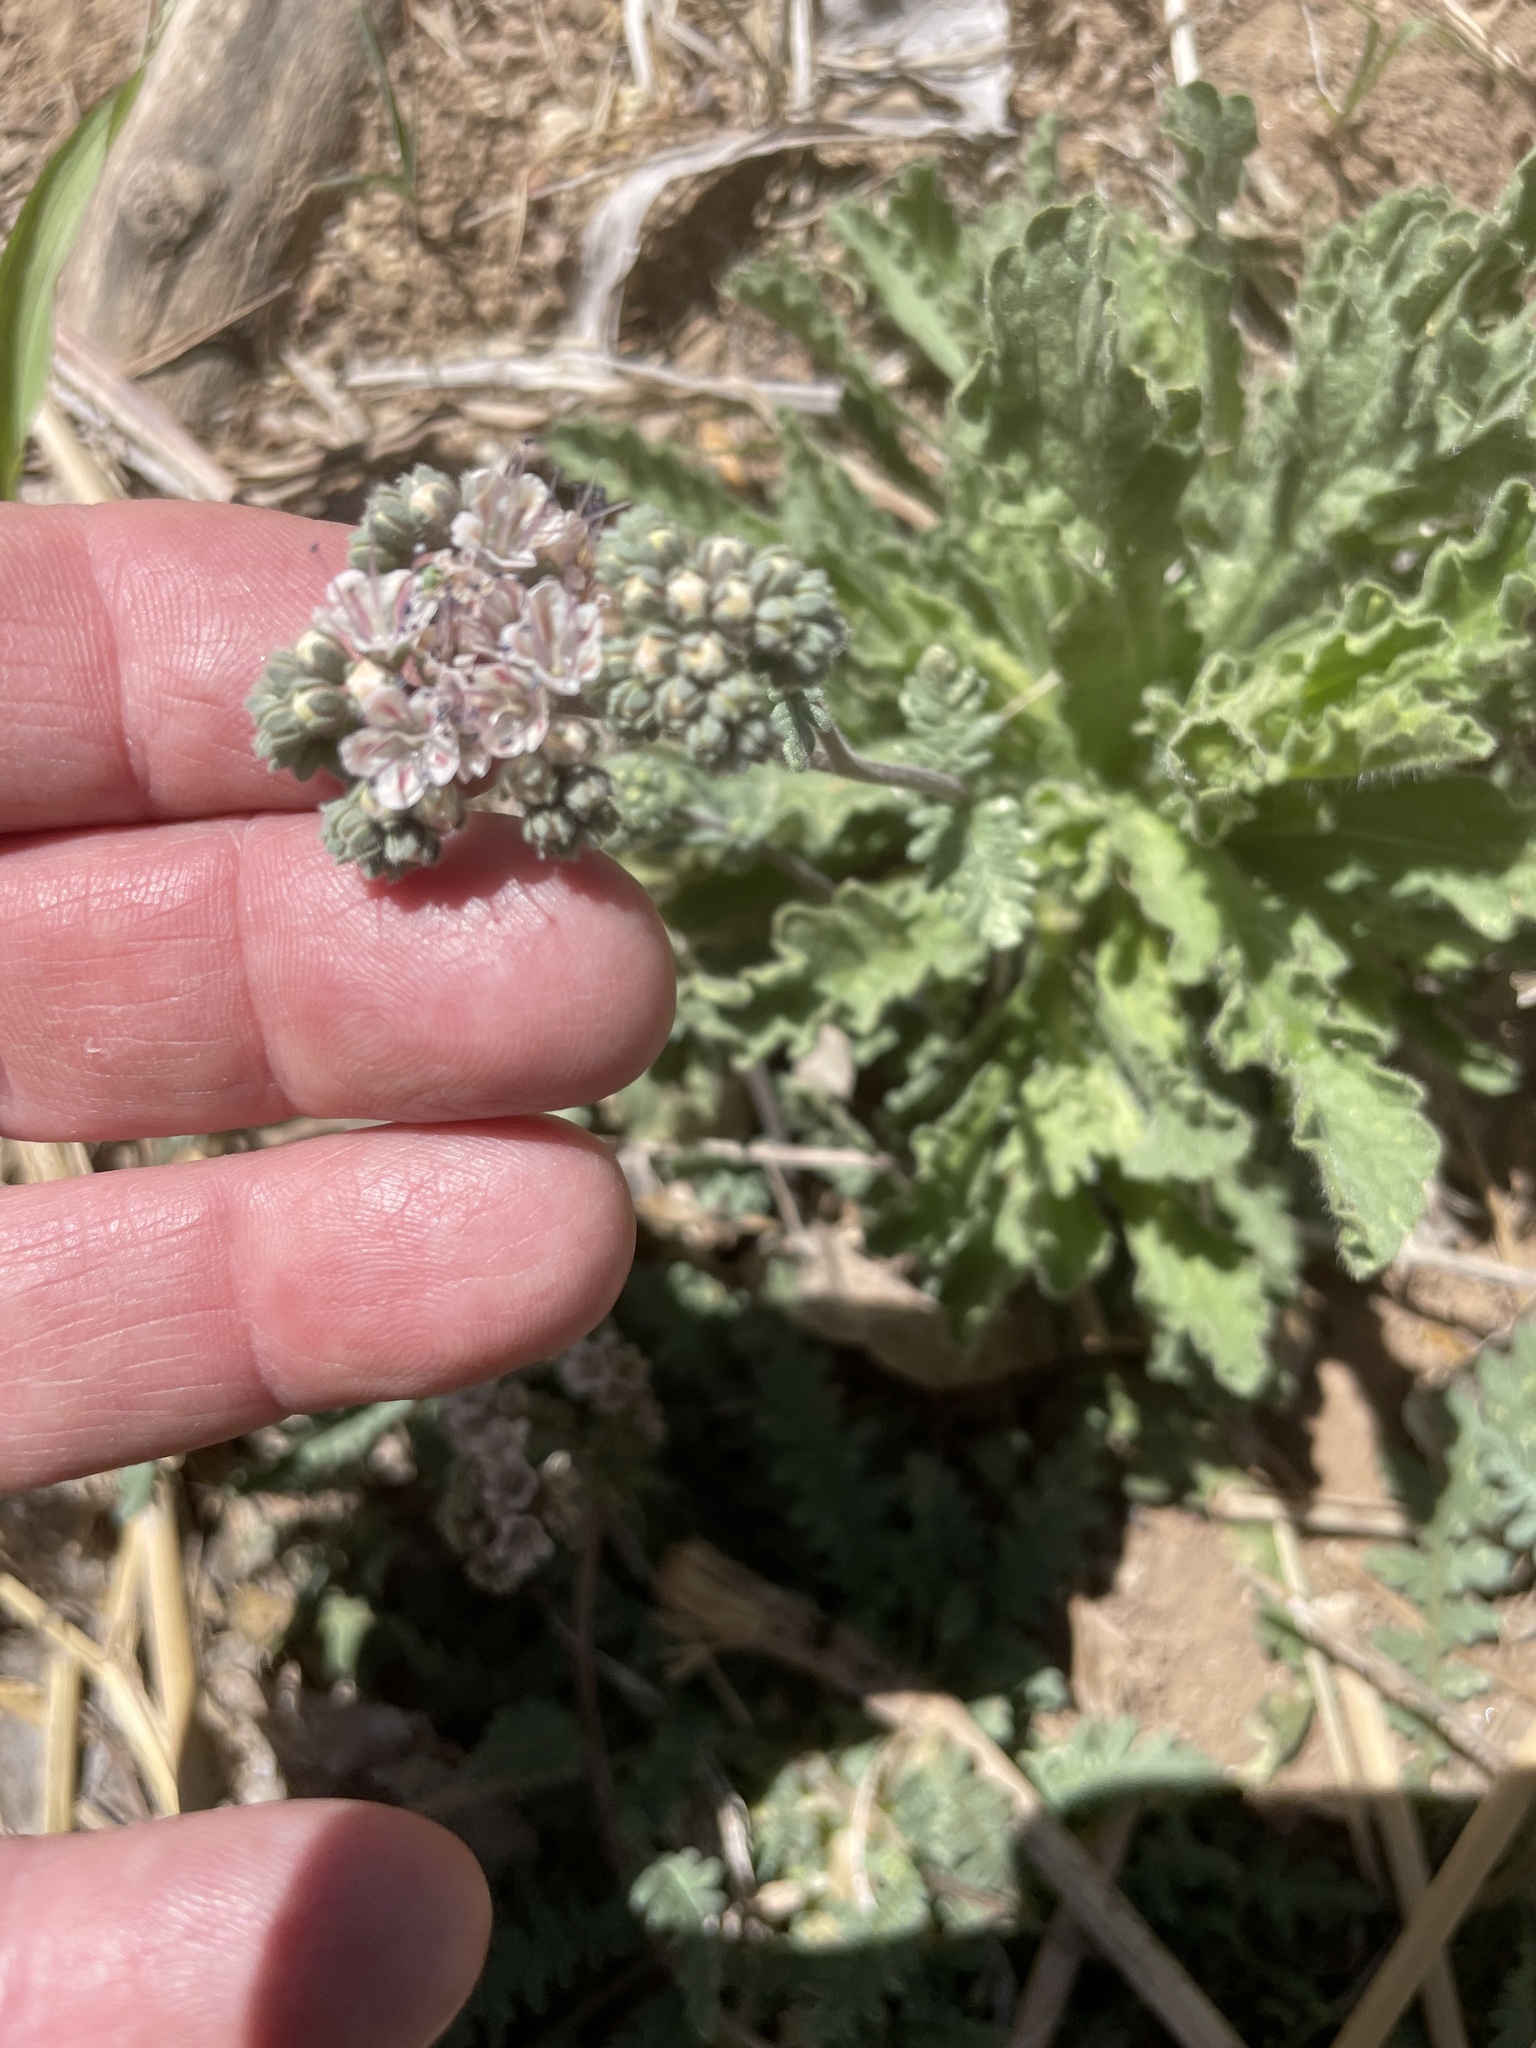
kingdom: Plantae
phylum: Tracheophyta
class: Magnoliopsida
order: Boraginales
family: Hydrophyllaceae
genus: Phacelia
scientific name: Phacelia arizonica
